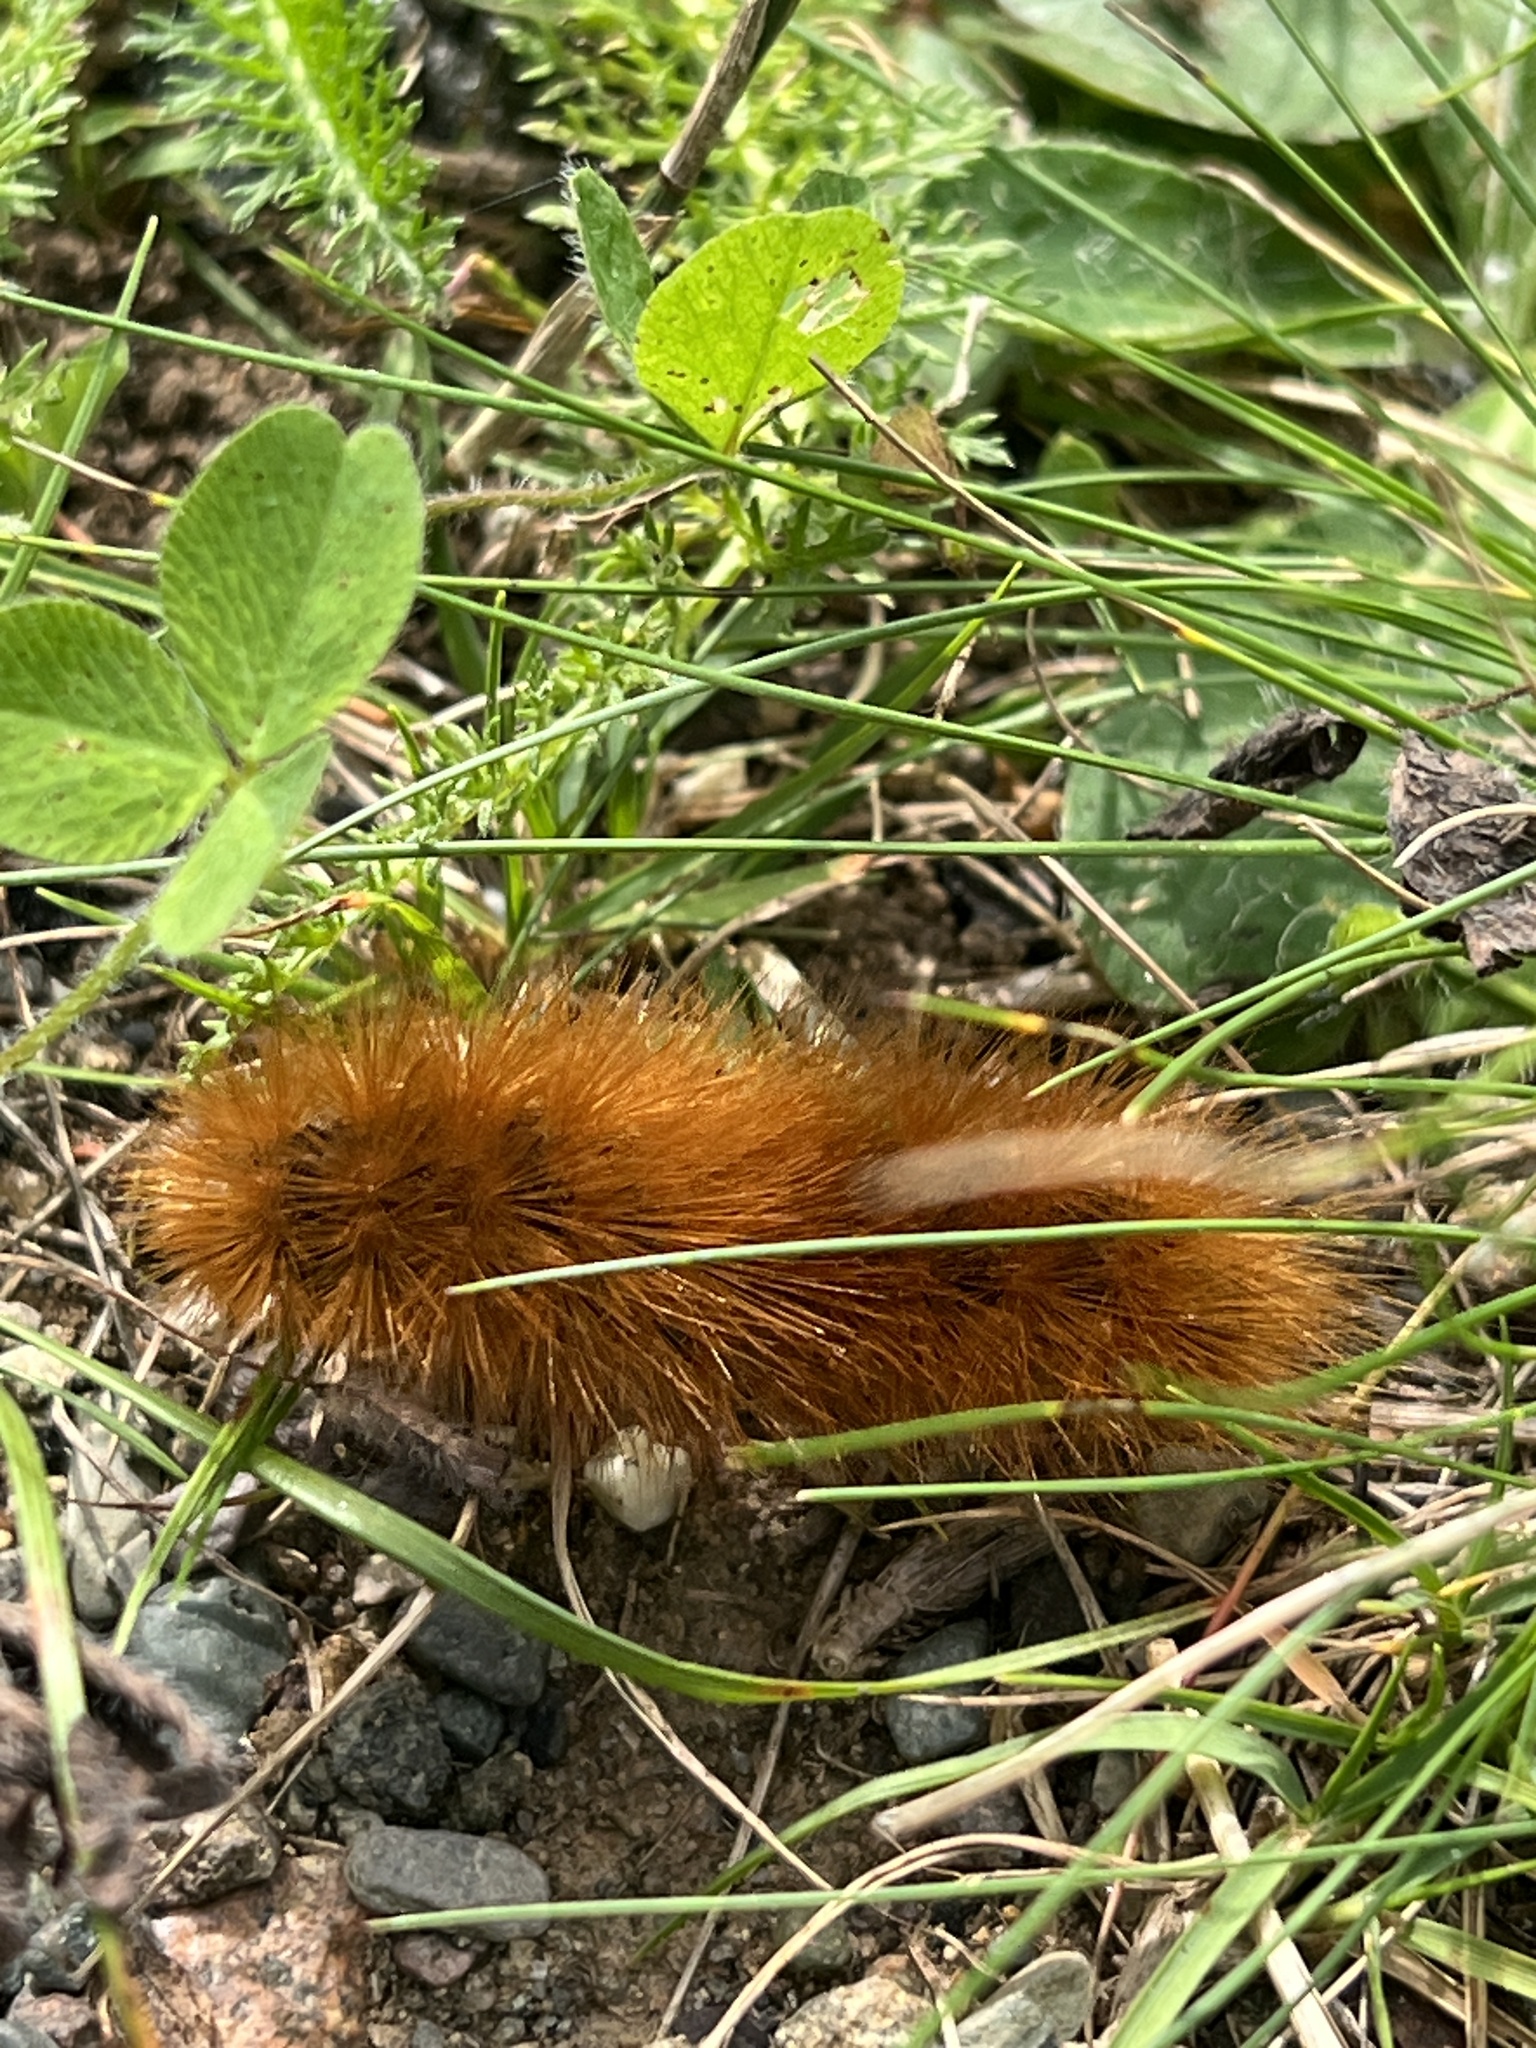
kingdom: Animalia
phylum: Arthropoda
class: Insecta
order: Lepidoptera
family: Erebidae
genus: Estigmene
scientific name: Estigmene acrea
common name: Salt marsh moth
